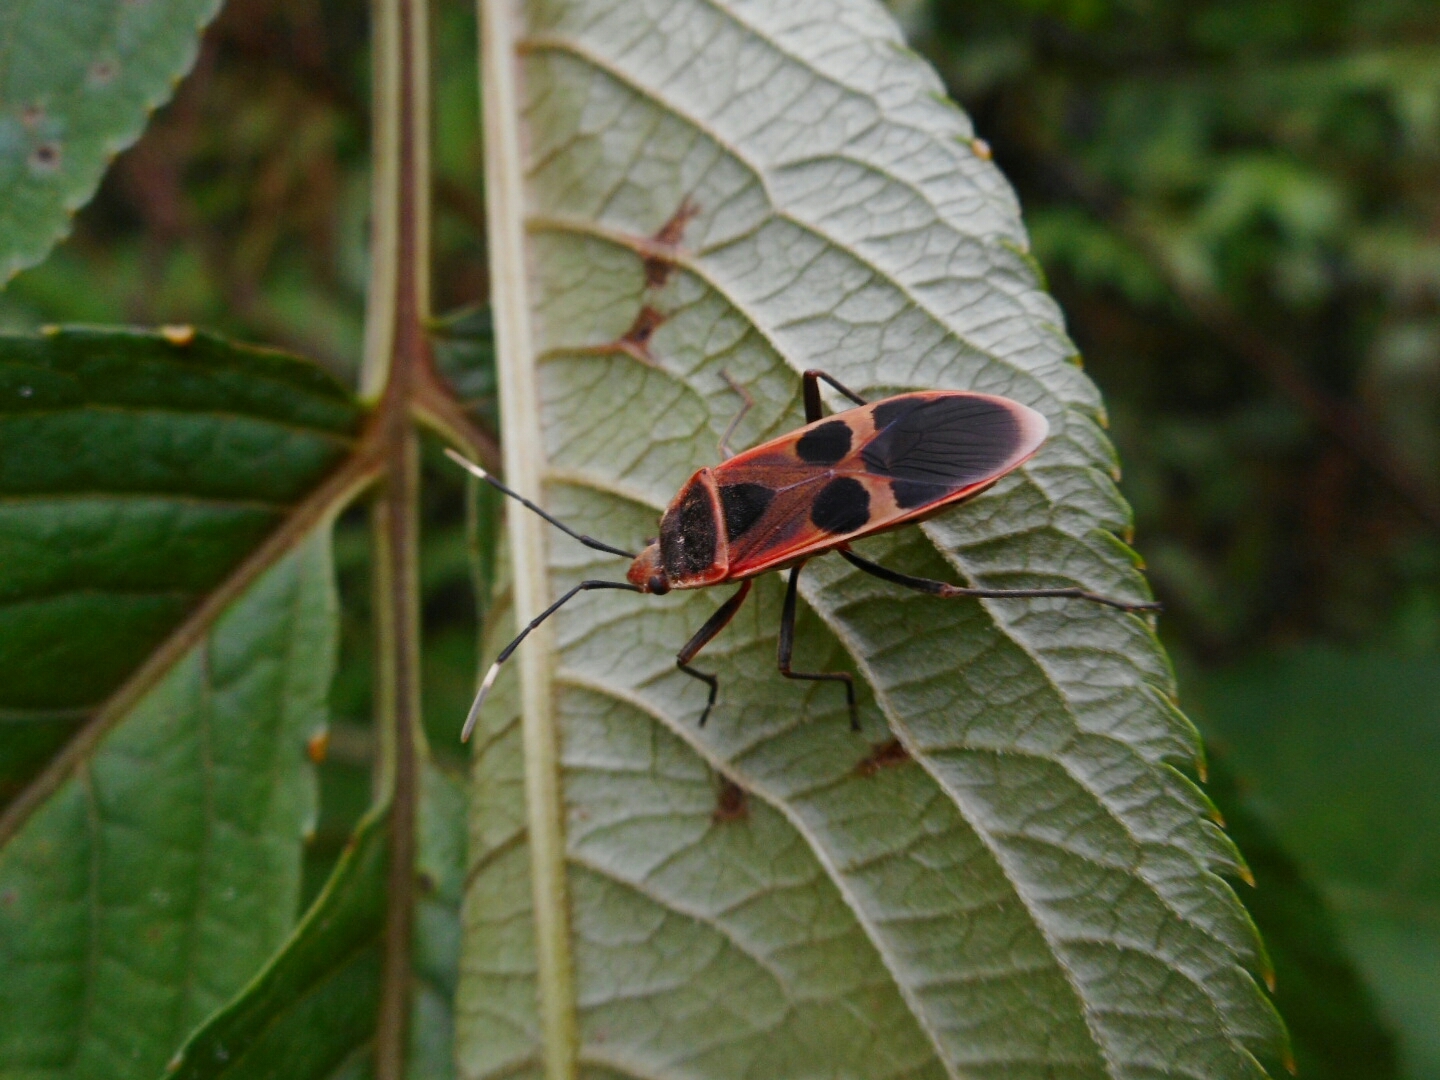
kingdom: Animalia
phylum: Arthropoda
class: Insecta
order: Hemiptera
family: Largidae
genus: Physopelta
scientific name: Physopelta gutta
